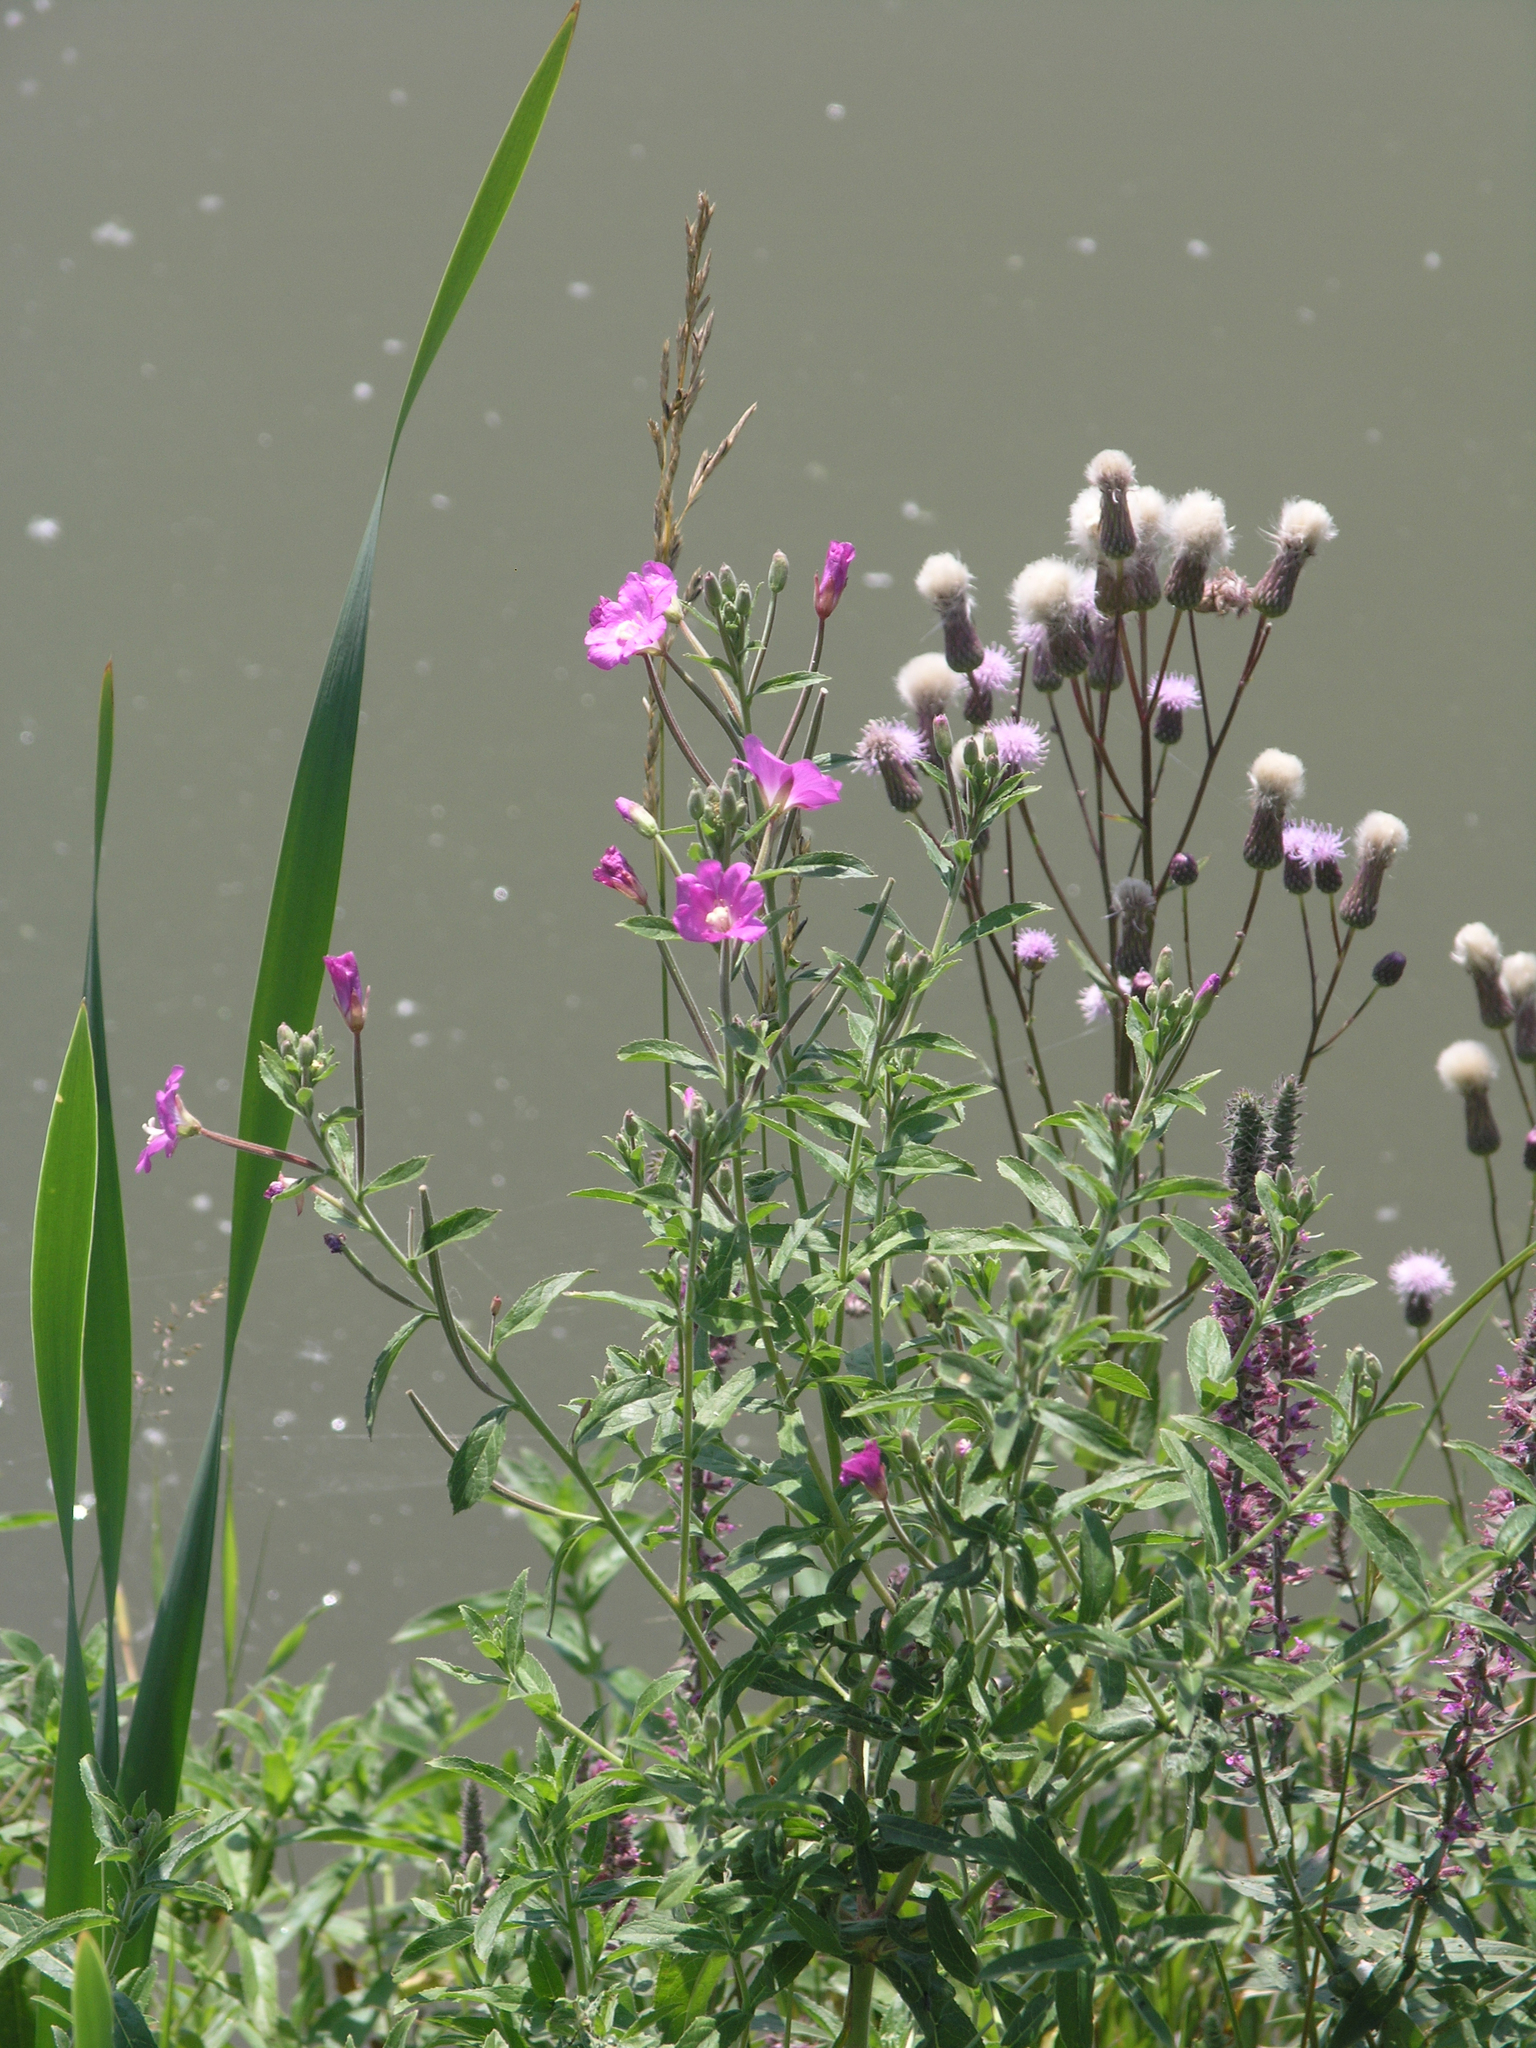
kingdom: Plantae
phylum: Tracheophyta
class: Magnoliopsida
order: Asterales
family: Asteraceae
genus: Cirsium
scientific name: Cirsium arvense
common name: Creeping thistle
